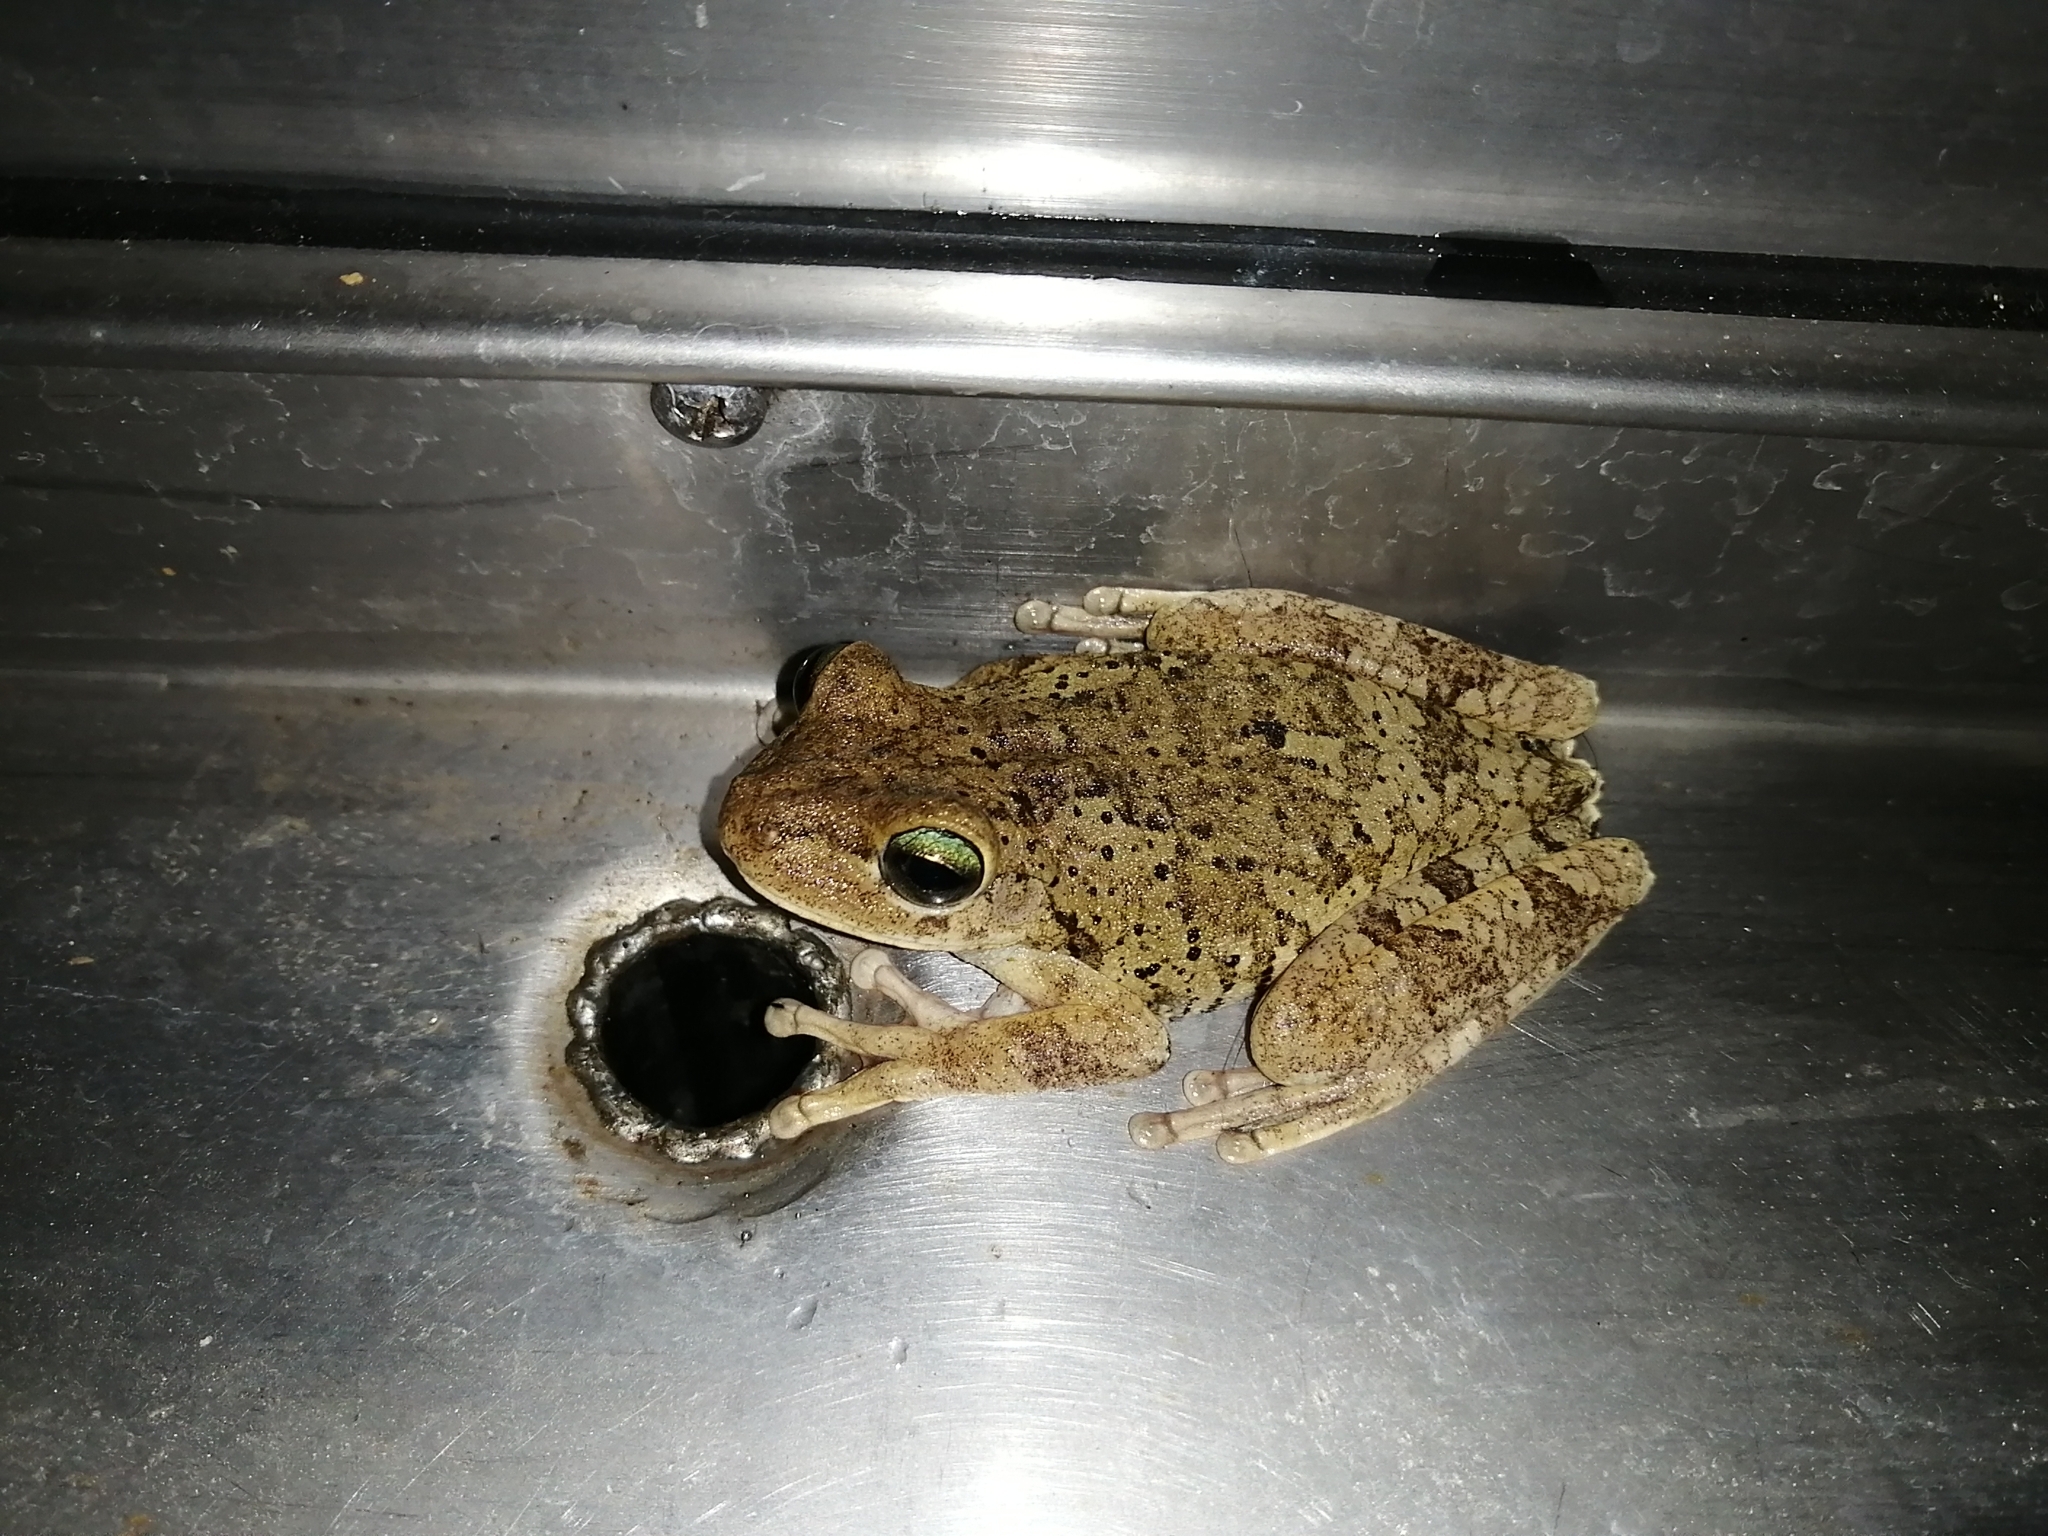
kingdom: Animalia
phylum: Chordata
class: Amphibia
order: Anura
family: Hylidae
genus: Boana
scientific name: Boana pugnax
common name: Chirique-flusse treefrog
